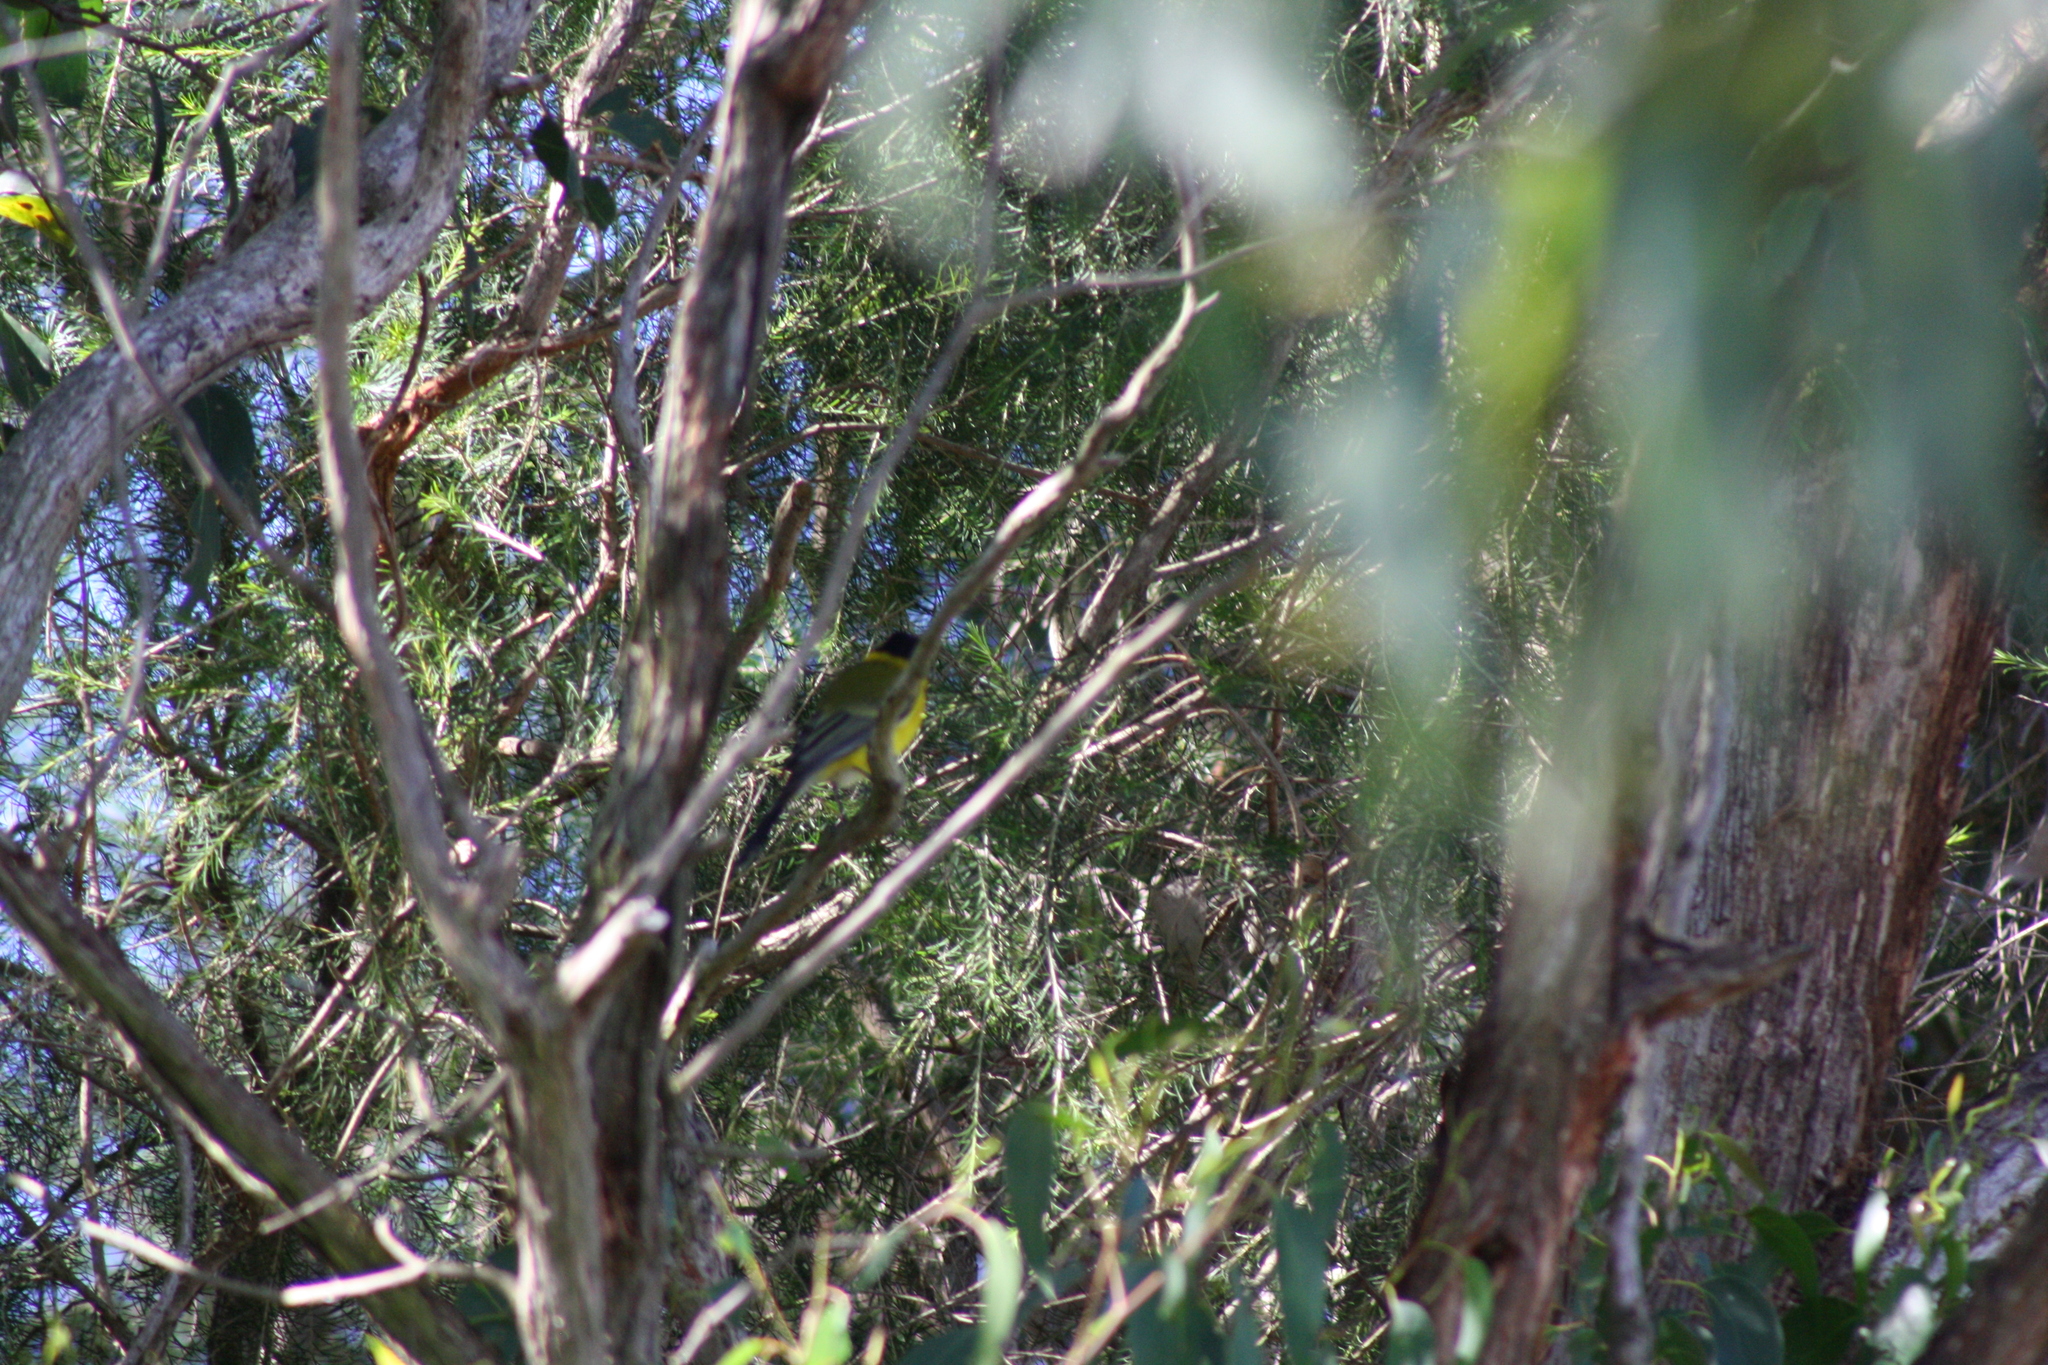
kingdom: Animalia
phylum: Chordata
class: Aves
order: Passeriformes
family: Pachycephalidae
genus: Pachycephala
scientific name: Pachycephala pectoralis
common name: Australian golden whistler
